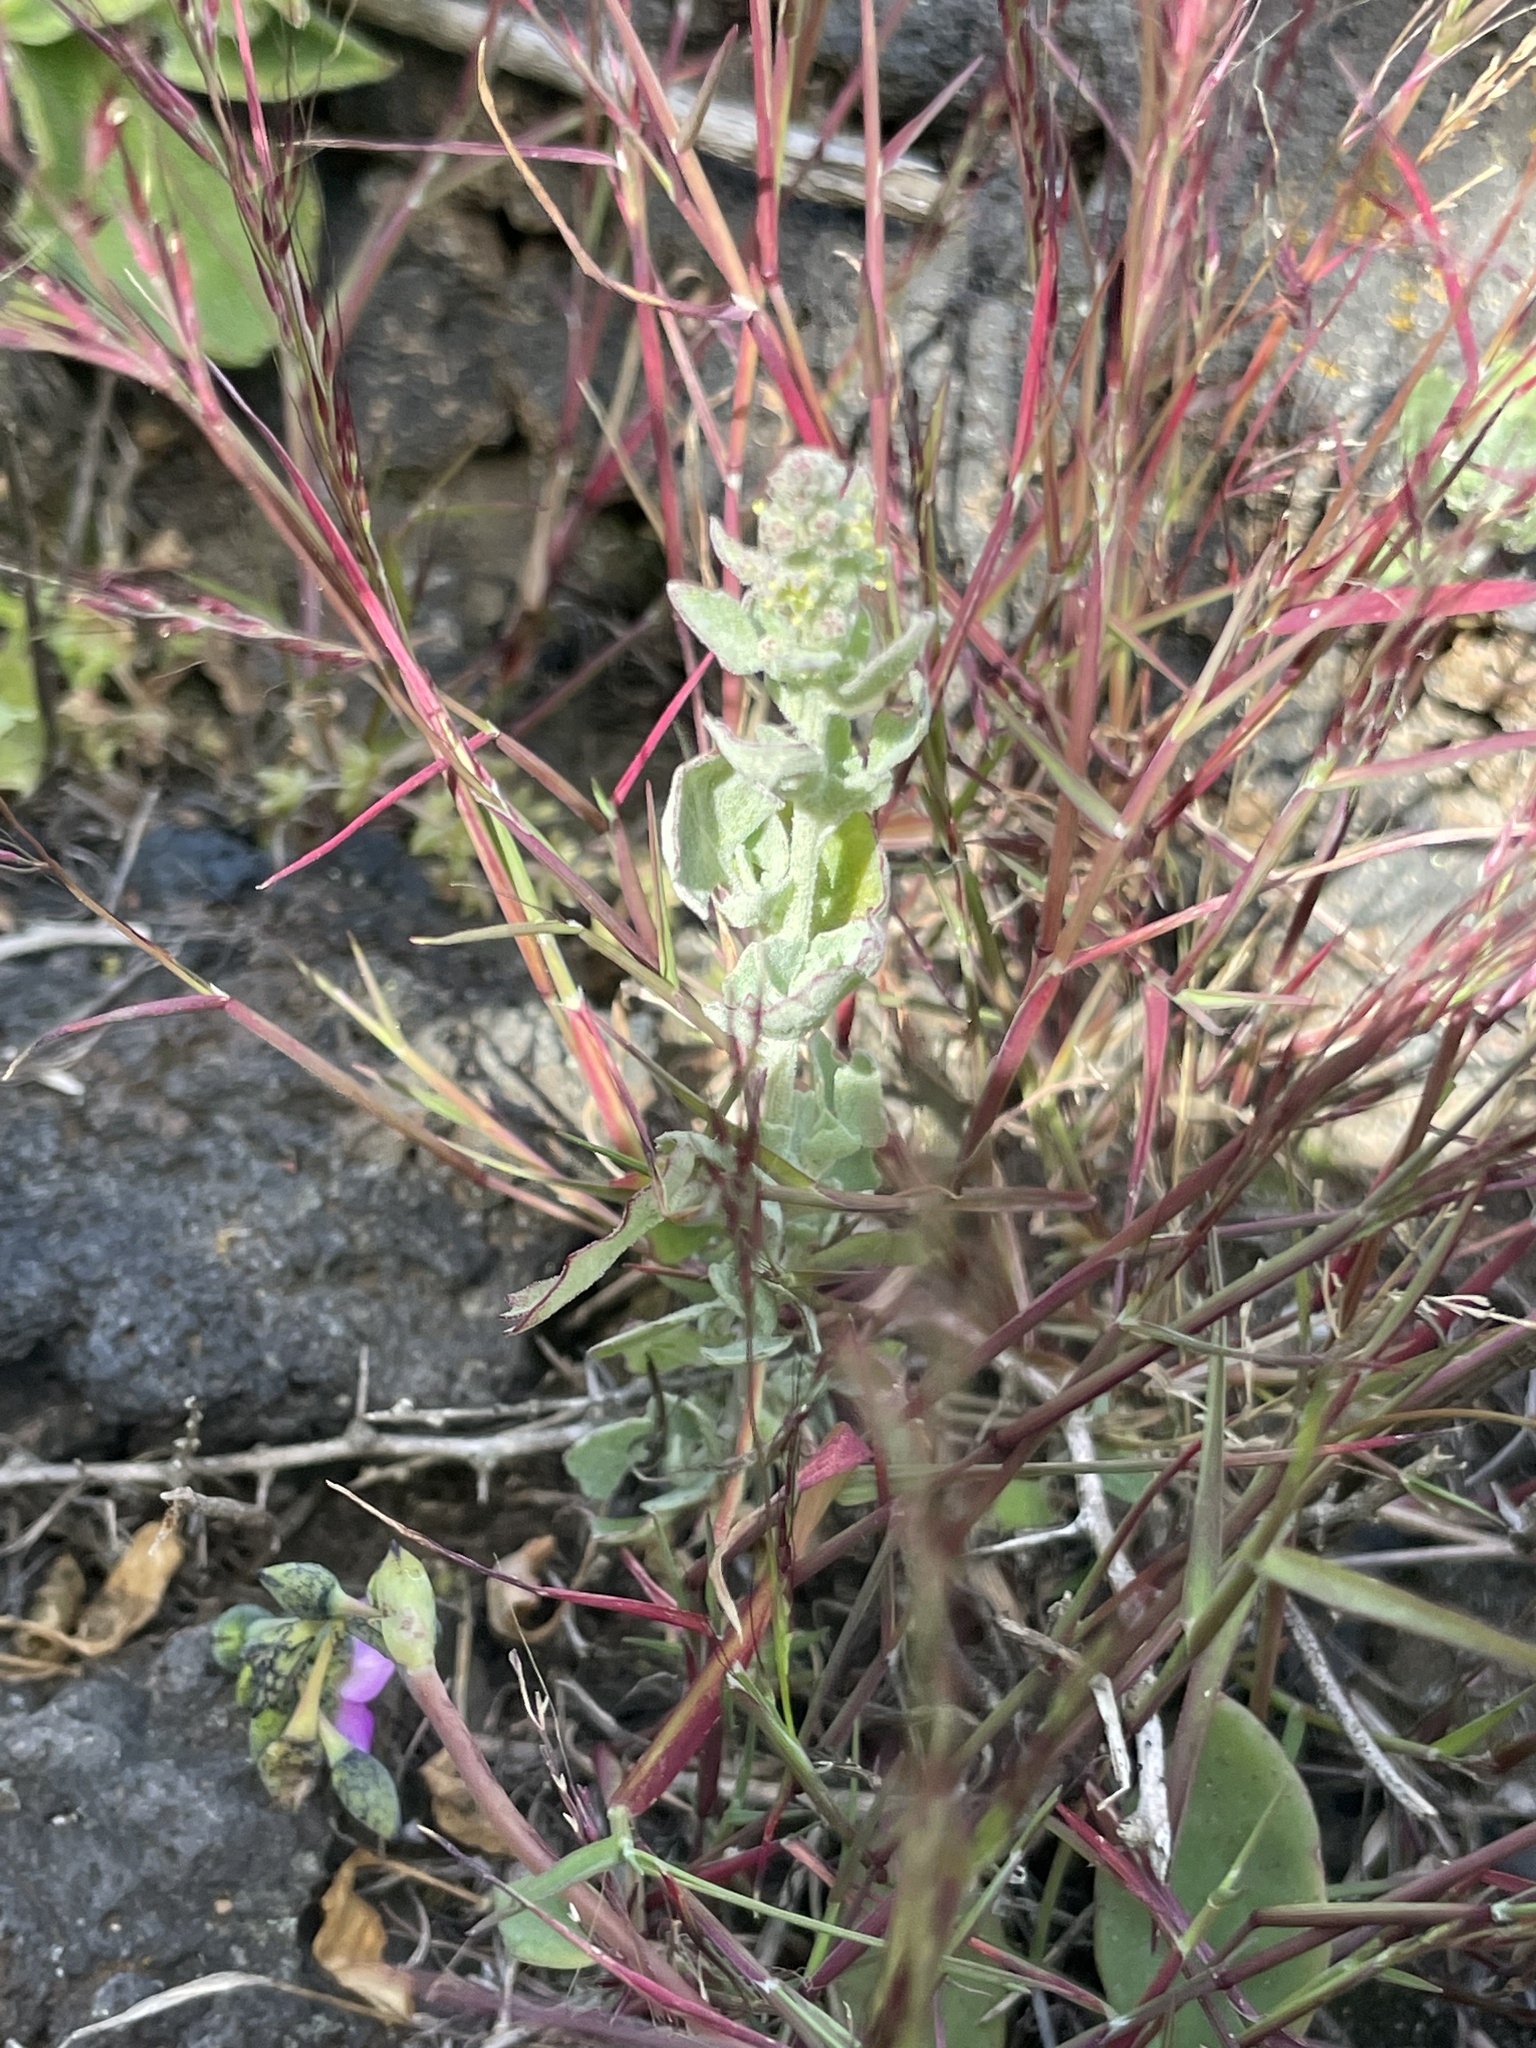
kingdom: Plantae
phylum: Tracheophyta
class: Magnoliopsida
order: Caryophyllales
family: Amaranthaceae
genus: Chenopodium
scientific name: Chenopodium flabellifolium
